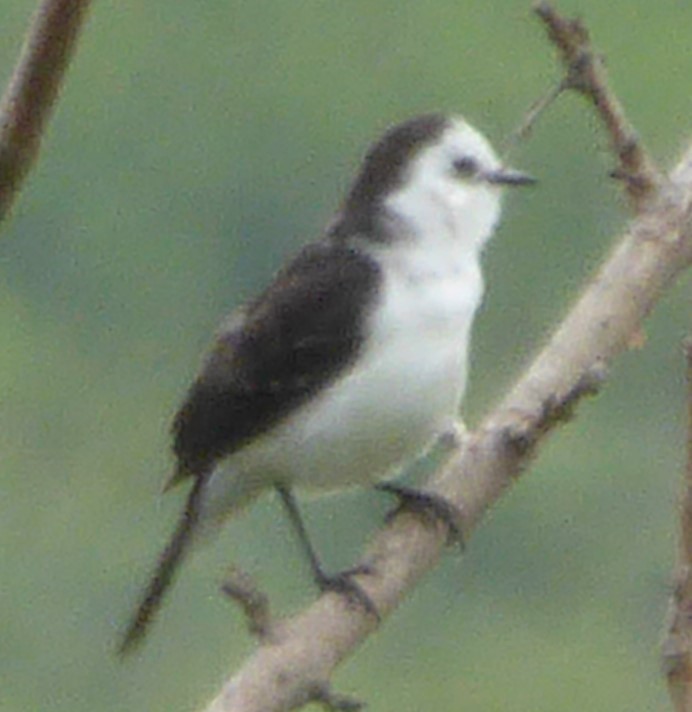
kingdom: Animalia
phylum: Chordata
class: Aves
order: Passeriformes
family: Tyrannidae
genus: Fluvicola
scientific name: Fluvicola pica
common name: Pied water-tyrant
